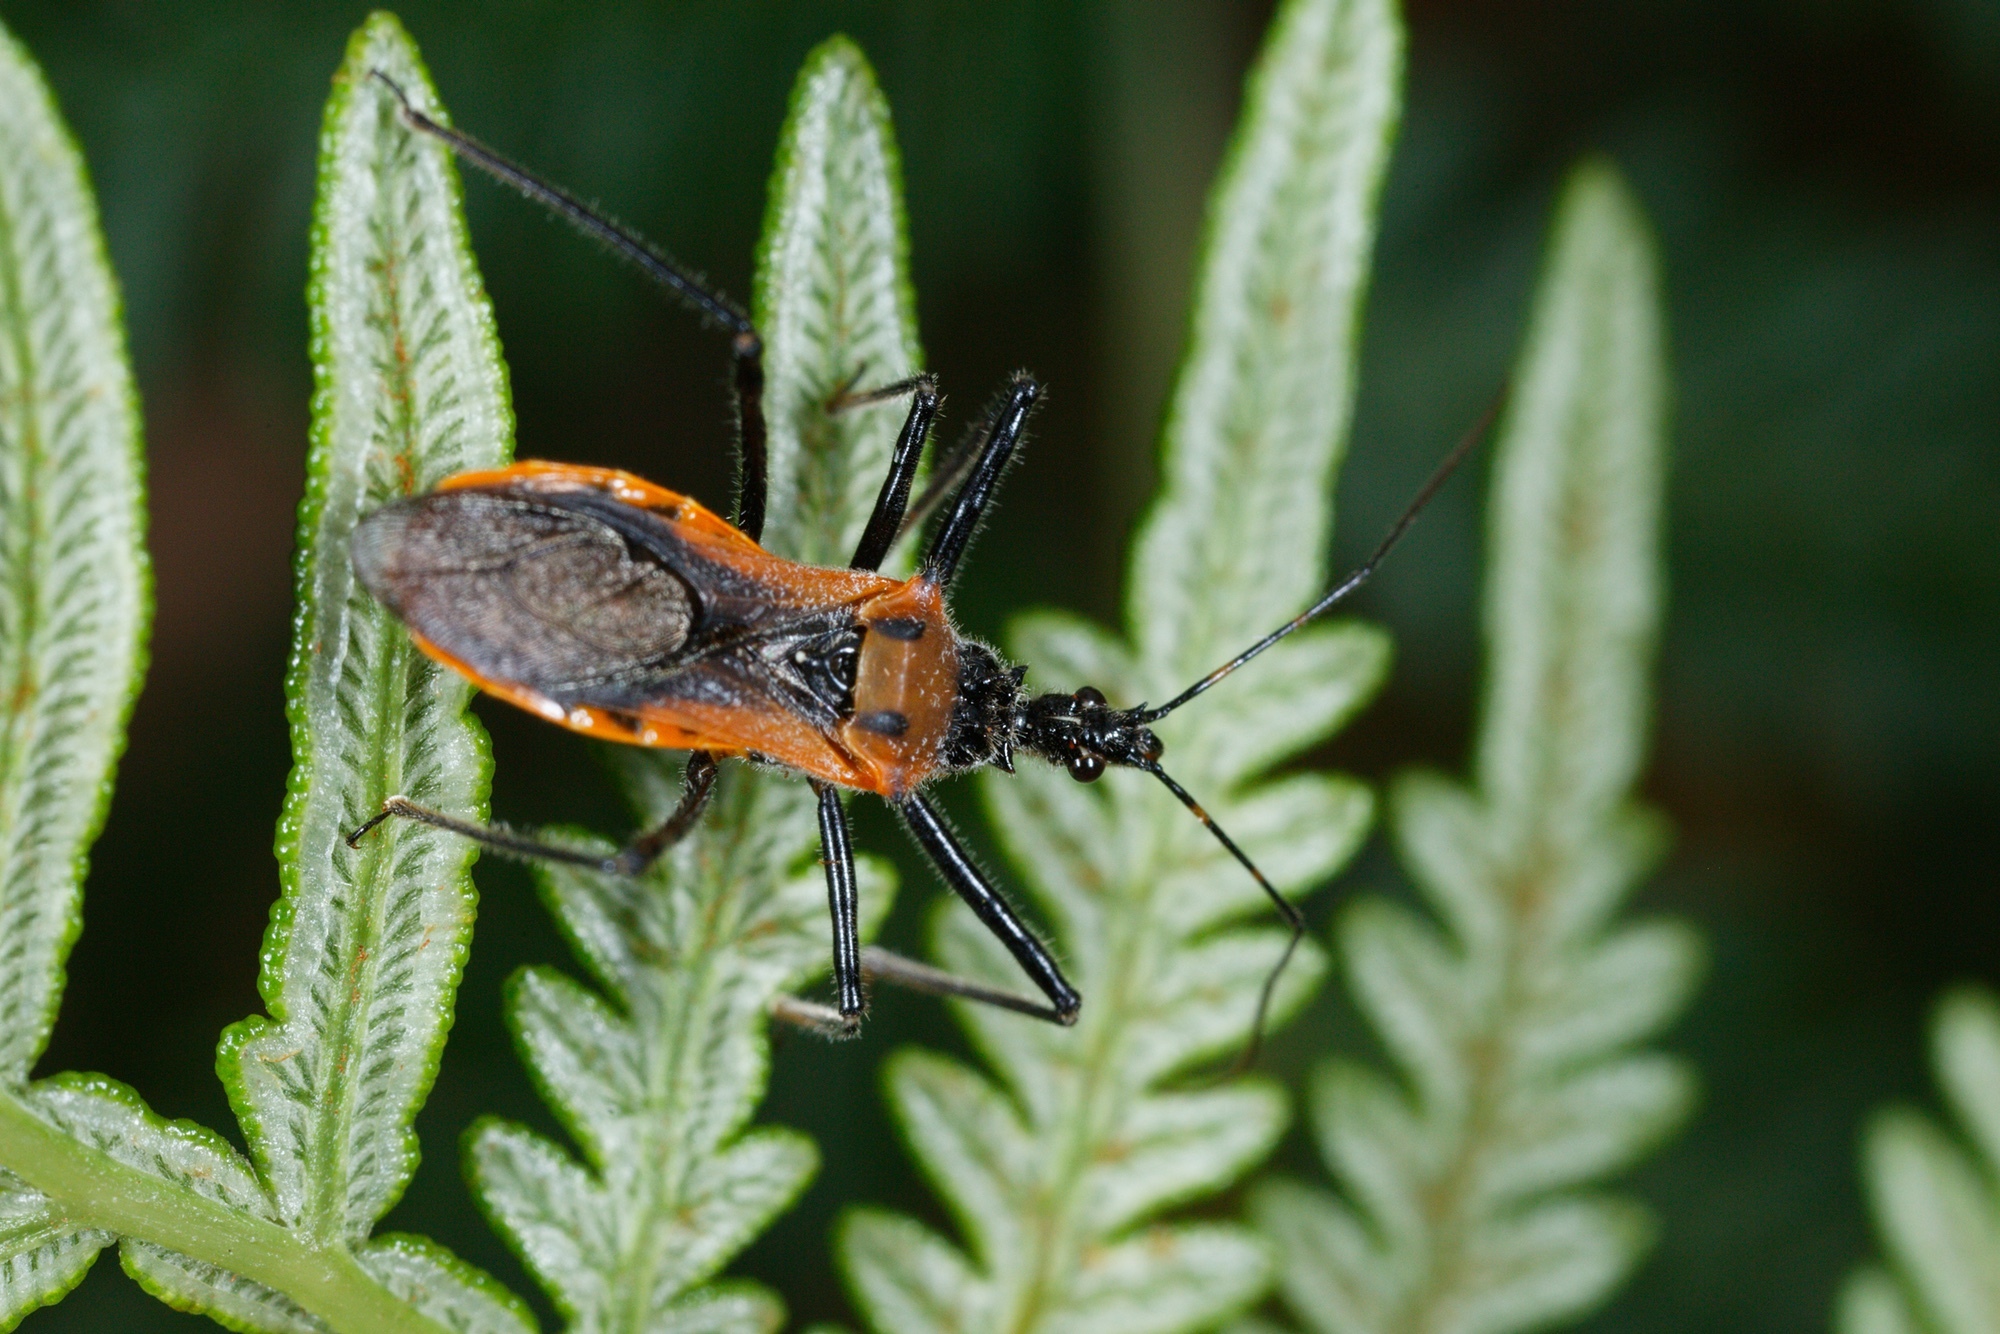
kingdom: Animalia
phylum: Arthropoda
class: Insecta
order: Hemiptera
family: Reduviidae
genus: Gminatus
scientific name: Gminatus australis
